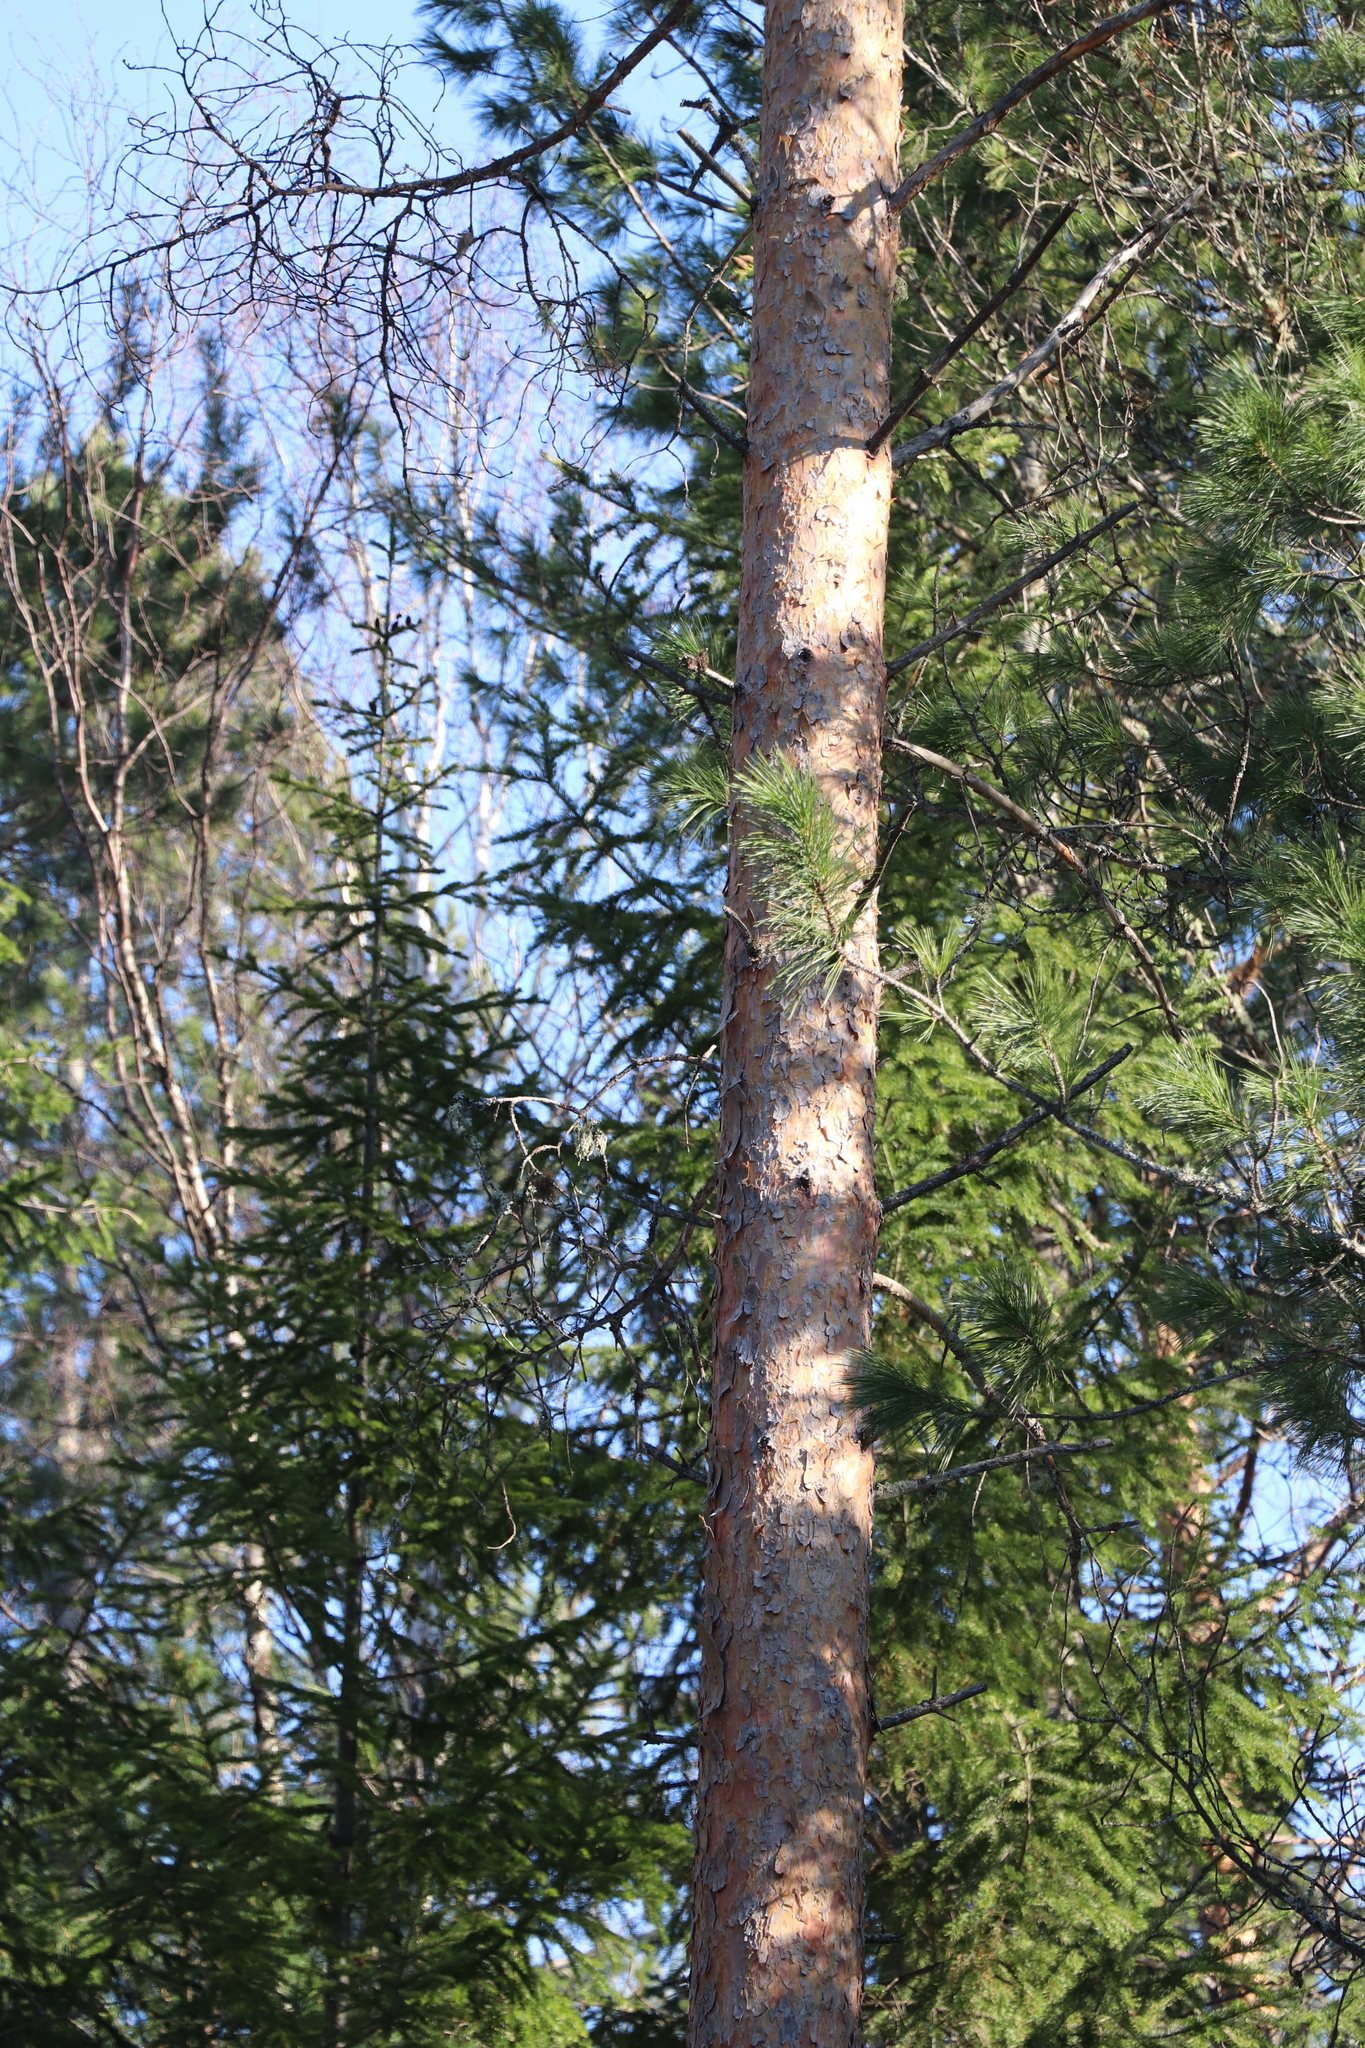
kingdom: Plantae
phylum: Tracheophyta
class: Pinopsida
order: Pinales
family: Pinaceae
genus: Pinus
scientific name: Pinus sylvestris
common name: Scots pine
